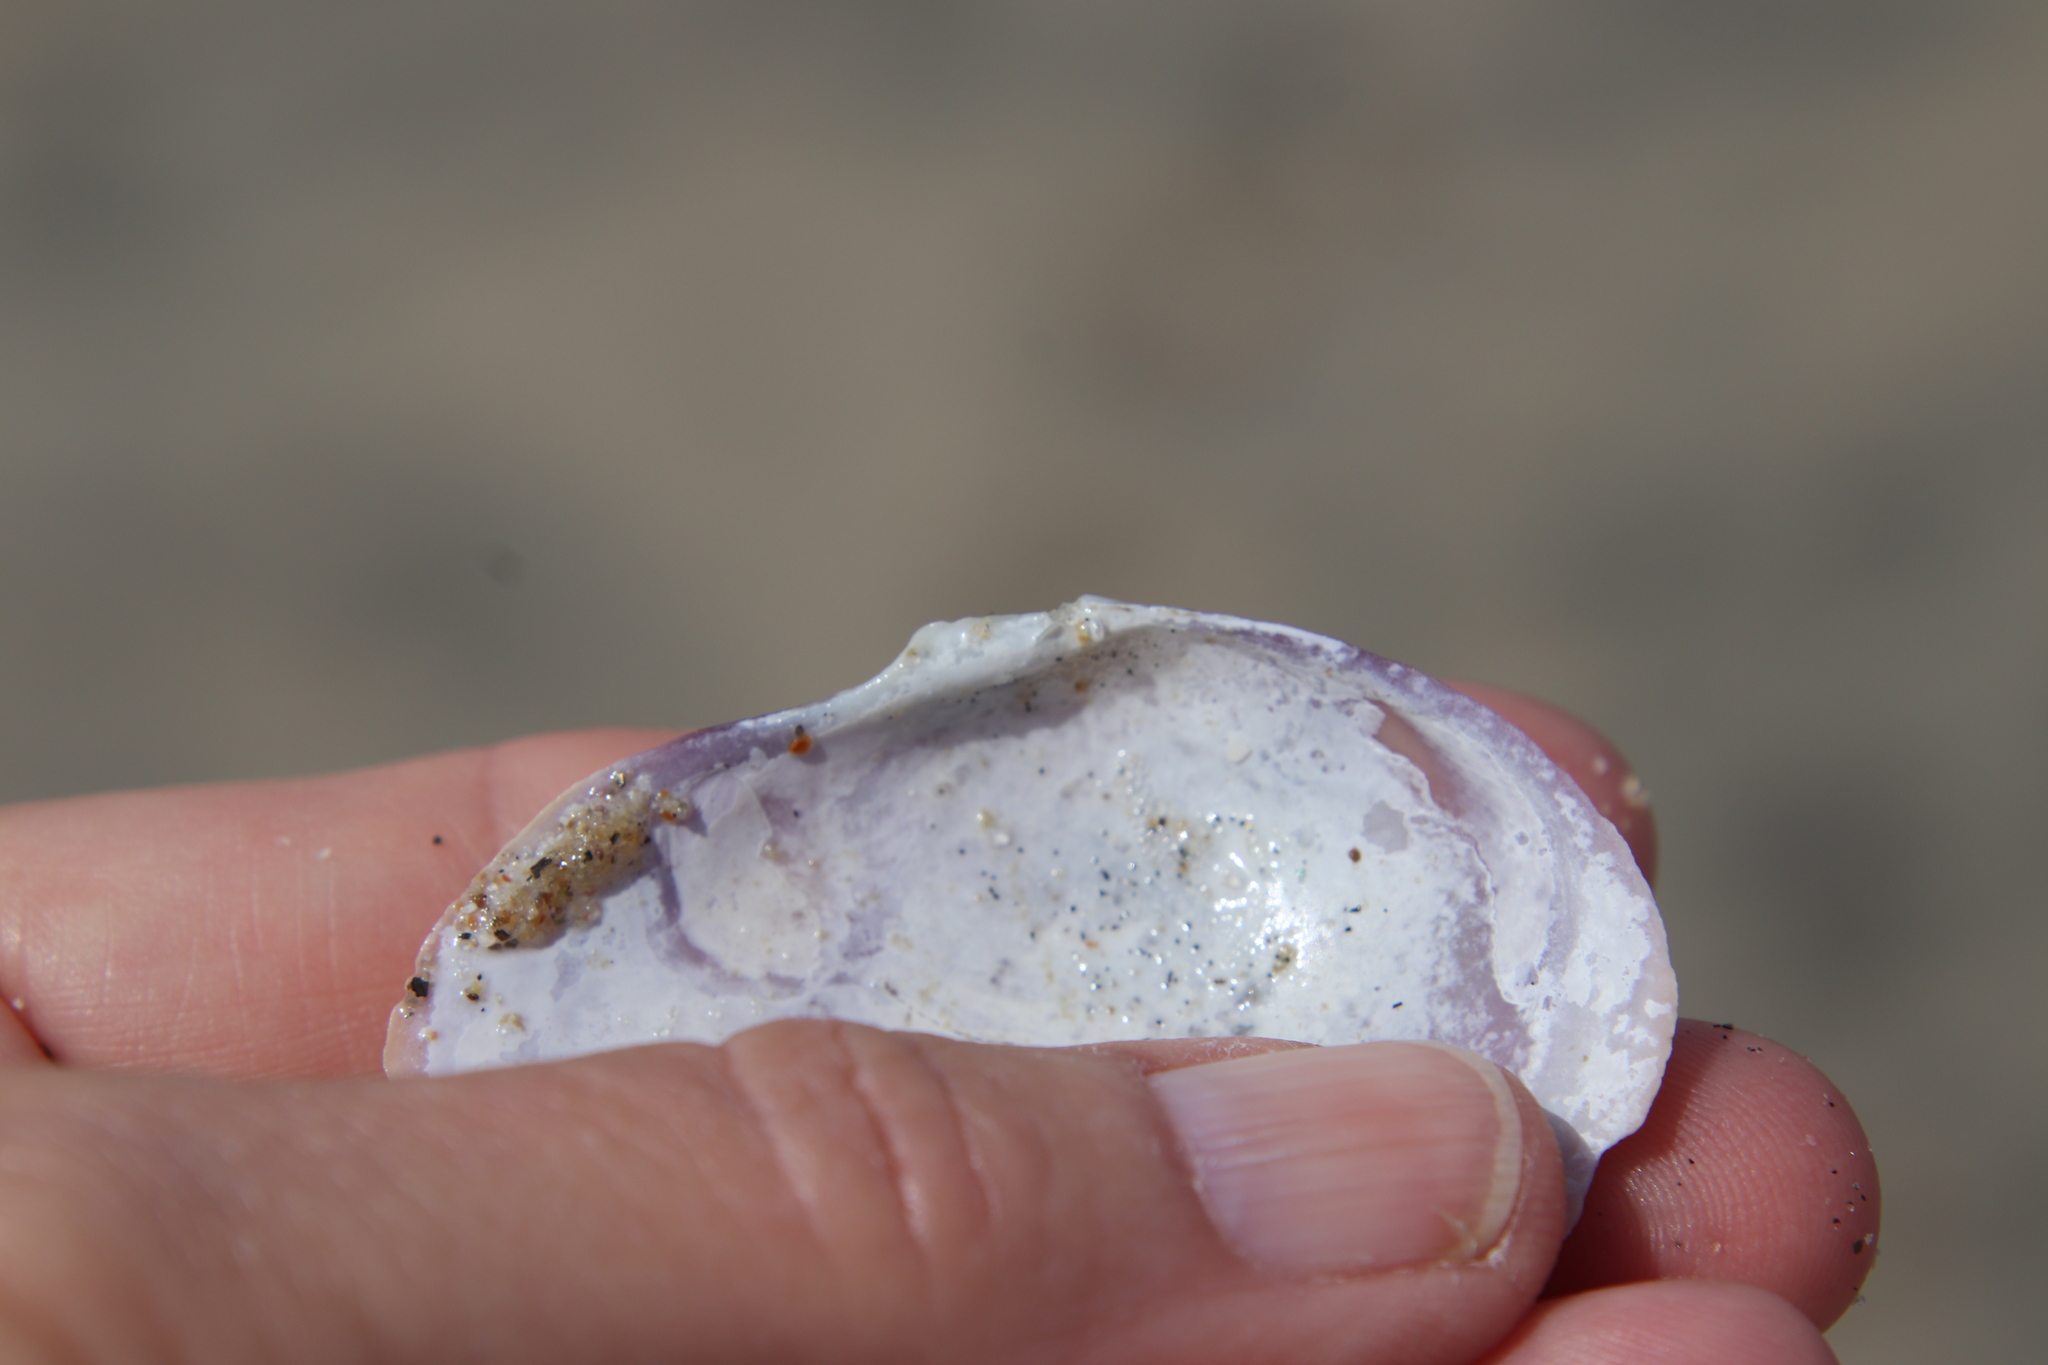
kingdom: Animalia
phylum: Mollusca
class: Bivalvia
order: Cardiida
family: Psammobiidae
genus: Nuttallia
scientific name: Nuttallia nuttallii
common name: California mahogany-clam
